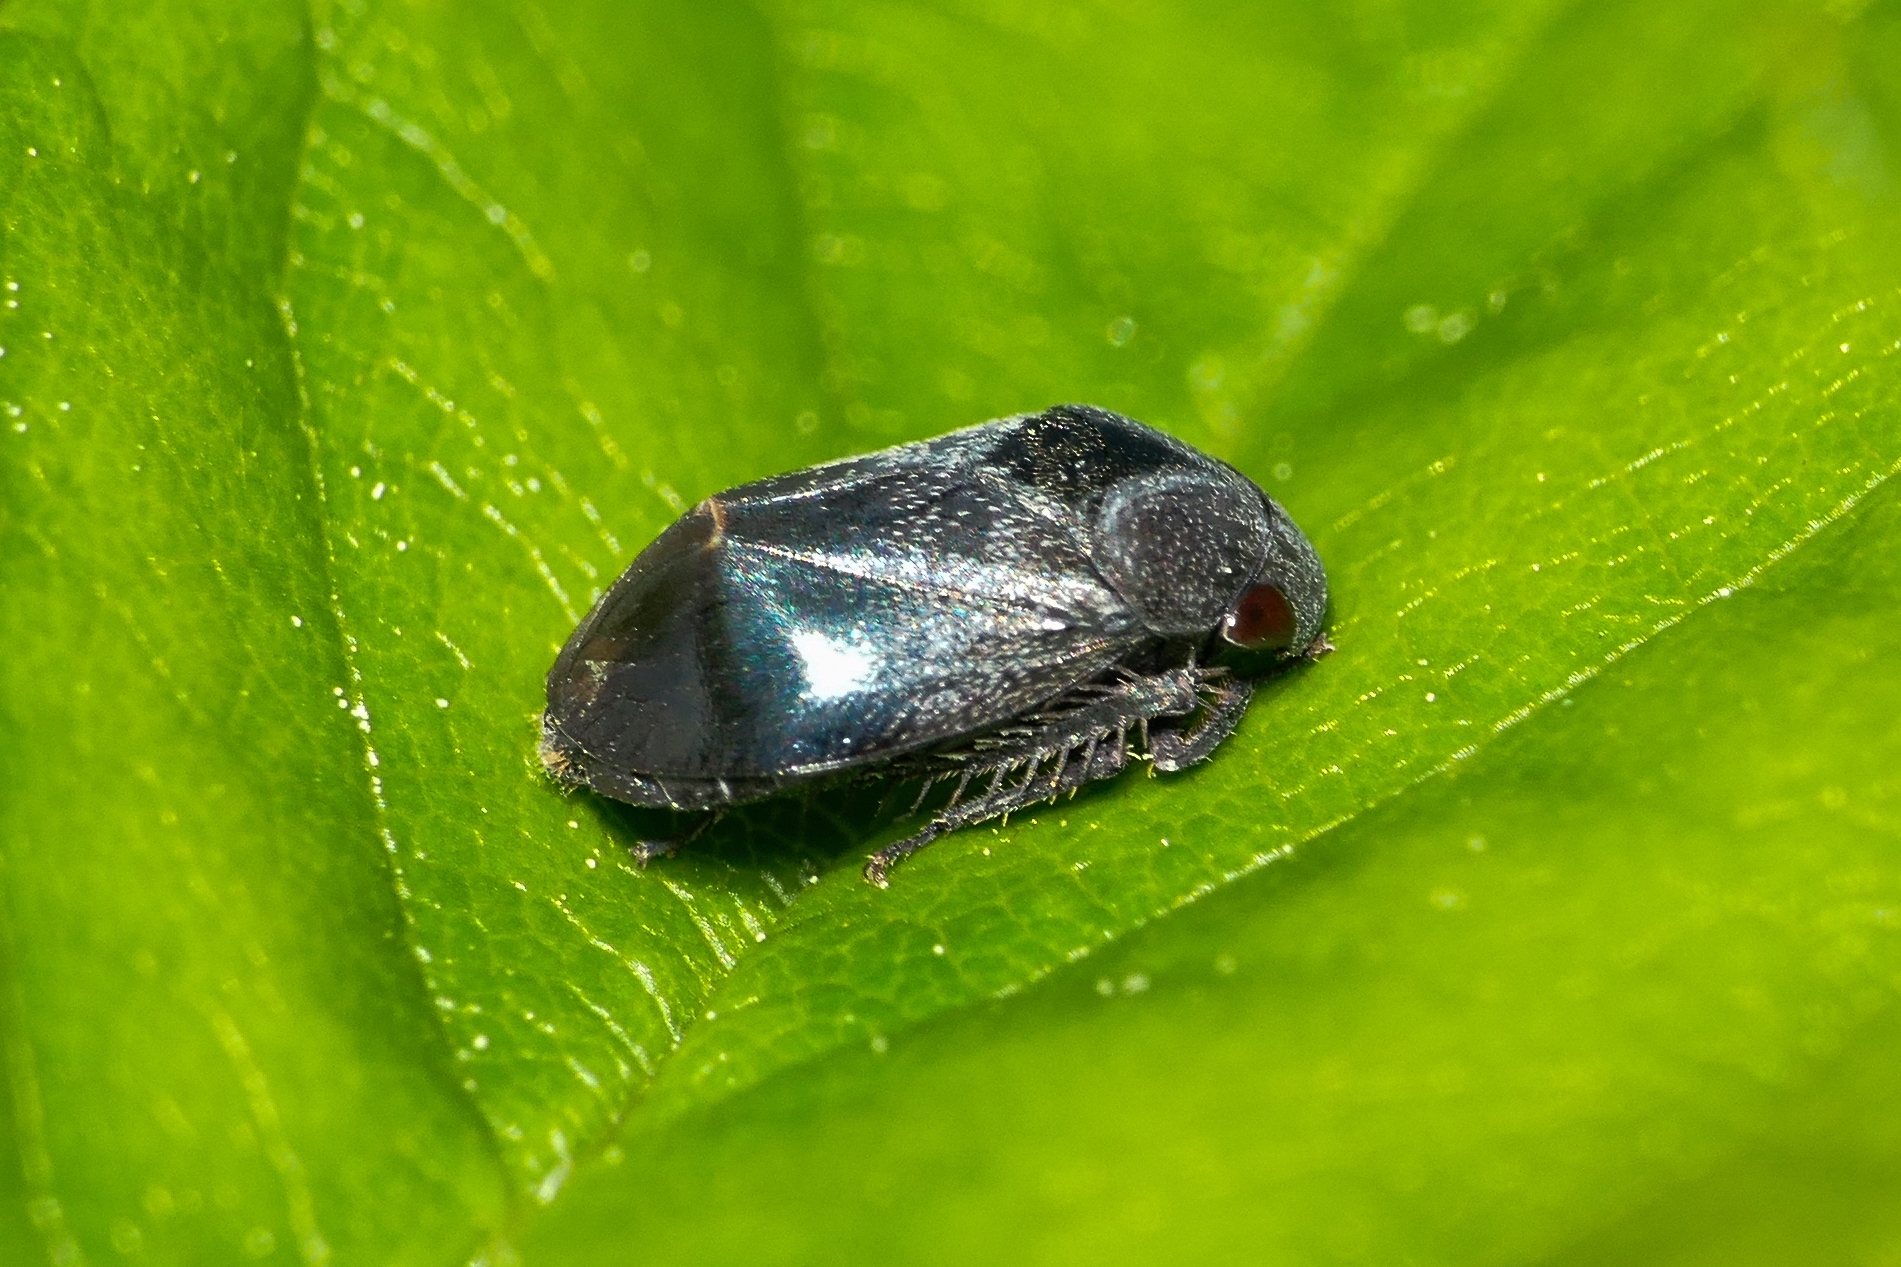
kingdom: Animalia
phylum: Arthropoda
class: Insecta
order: Hemiptera
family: Cicadellidae
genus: Penthimia
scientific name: Penthimia nigra
